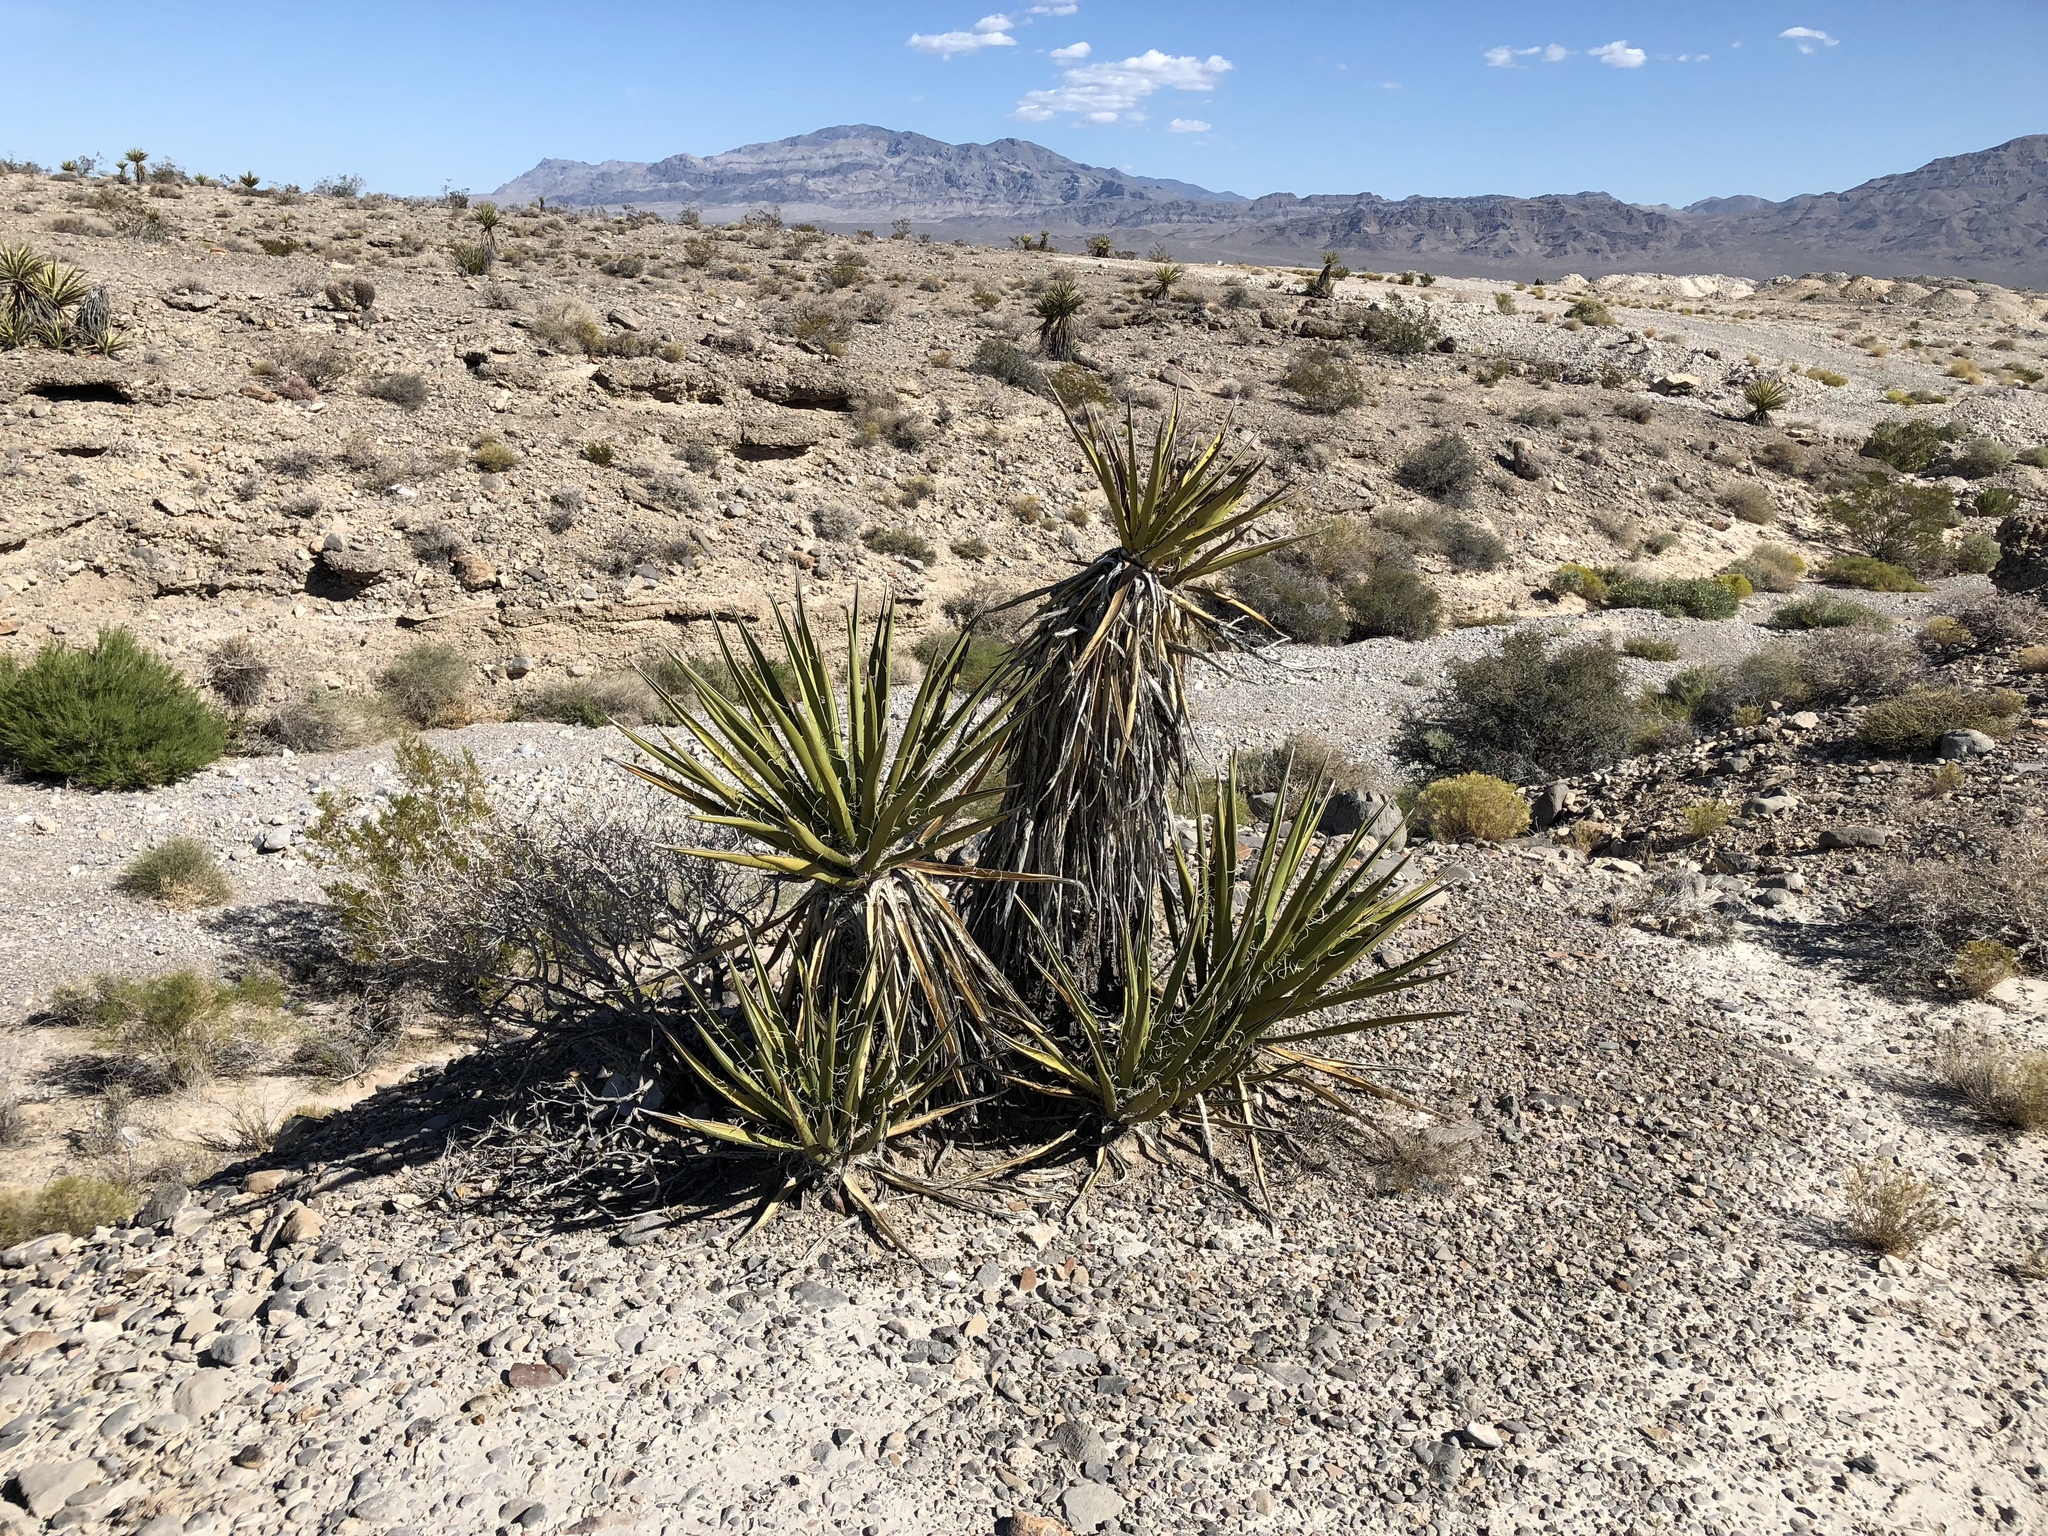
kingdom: Plantae
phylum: Tracheophyta
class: Liliopsida
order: Asparagales
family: Asparagaceae
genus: Yucca
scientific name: Yucca schidigera
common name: Mojave yucca
